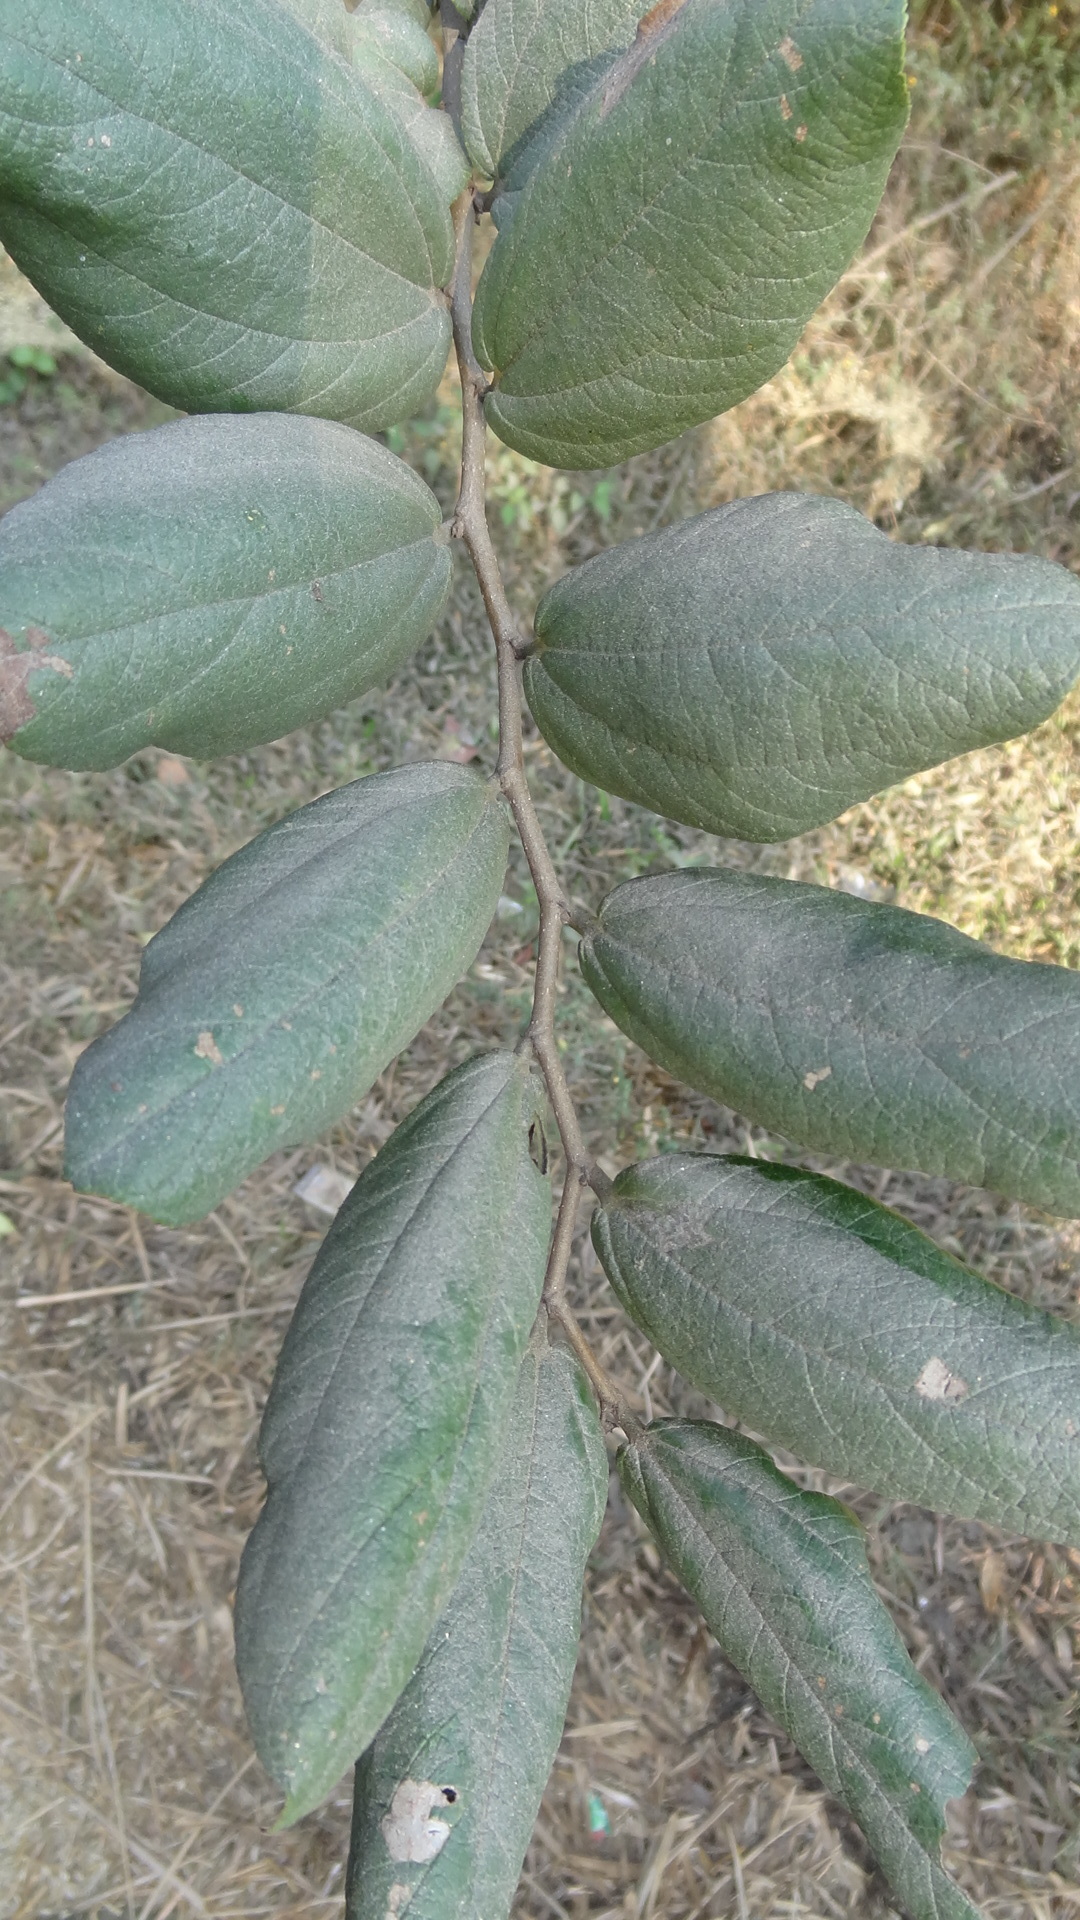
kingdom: Plantae
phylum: Tracheophyta
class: Magnoliopsida
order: Rosales
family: Rhamnaceae
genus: Ziziphus
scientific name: Ziziphus rugosa
